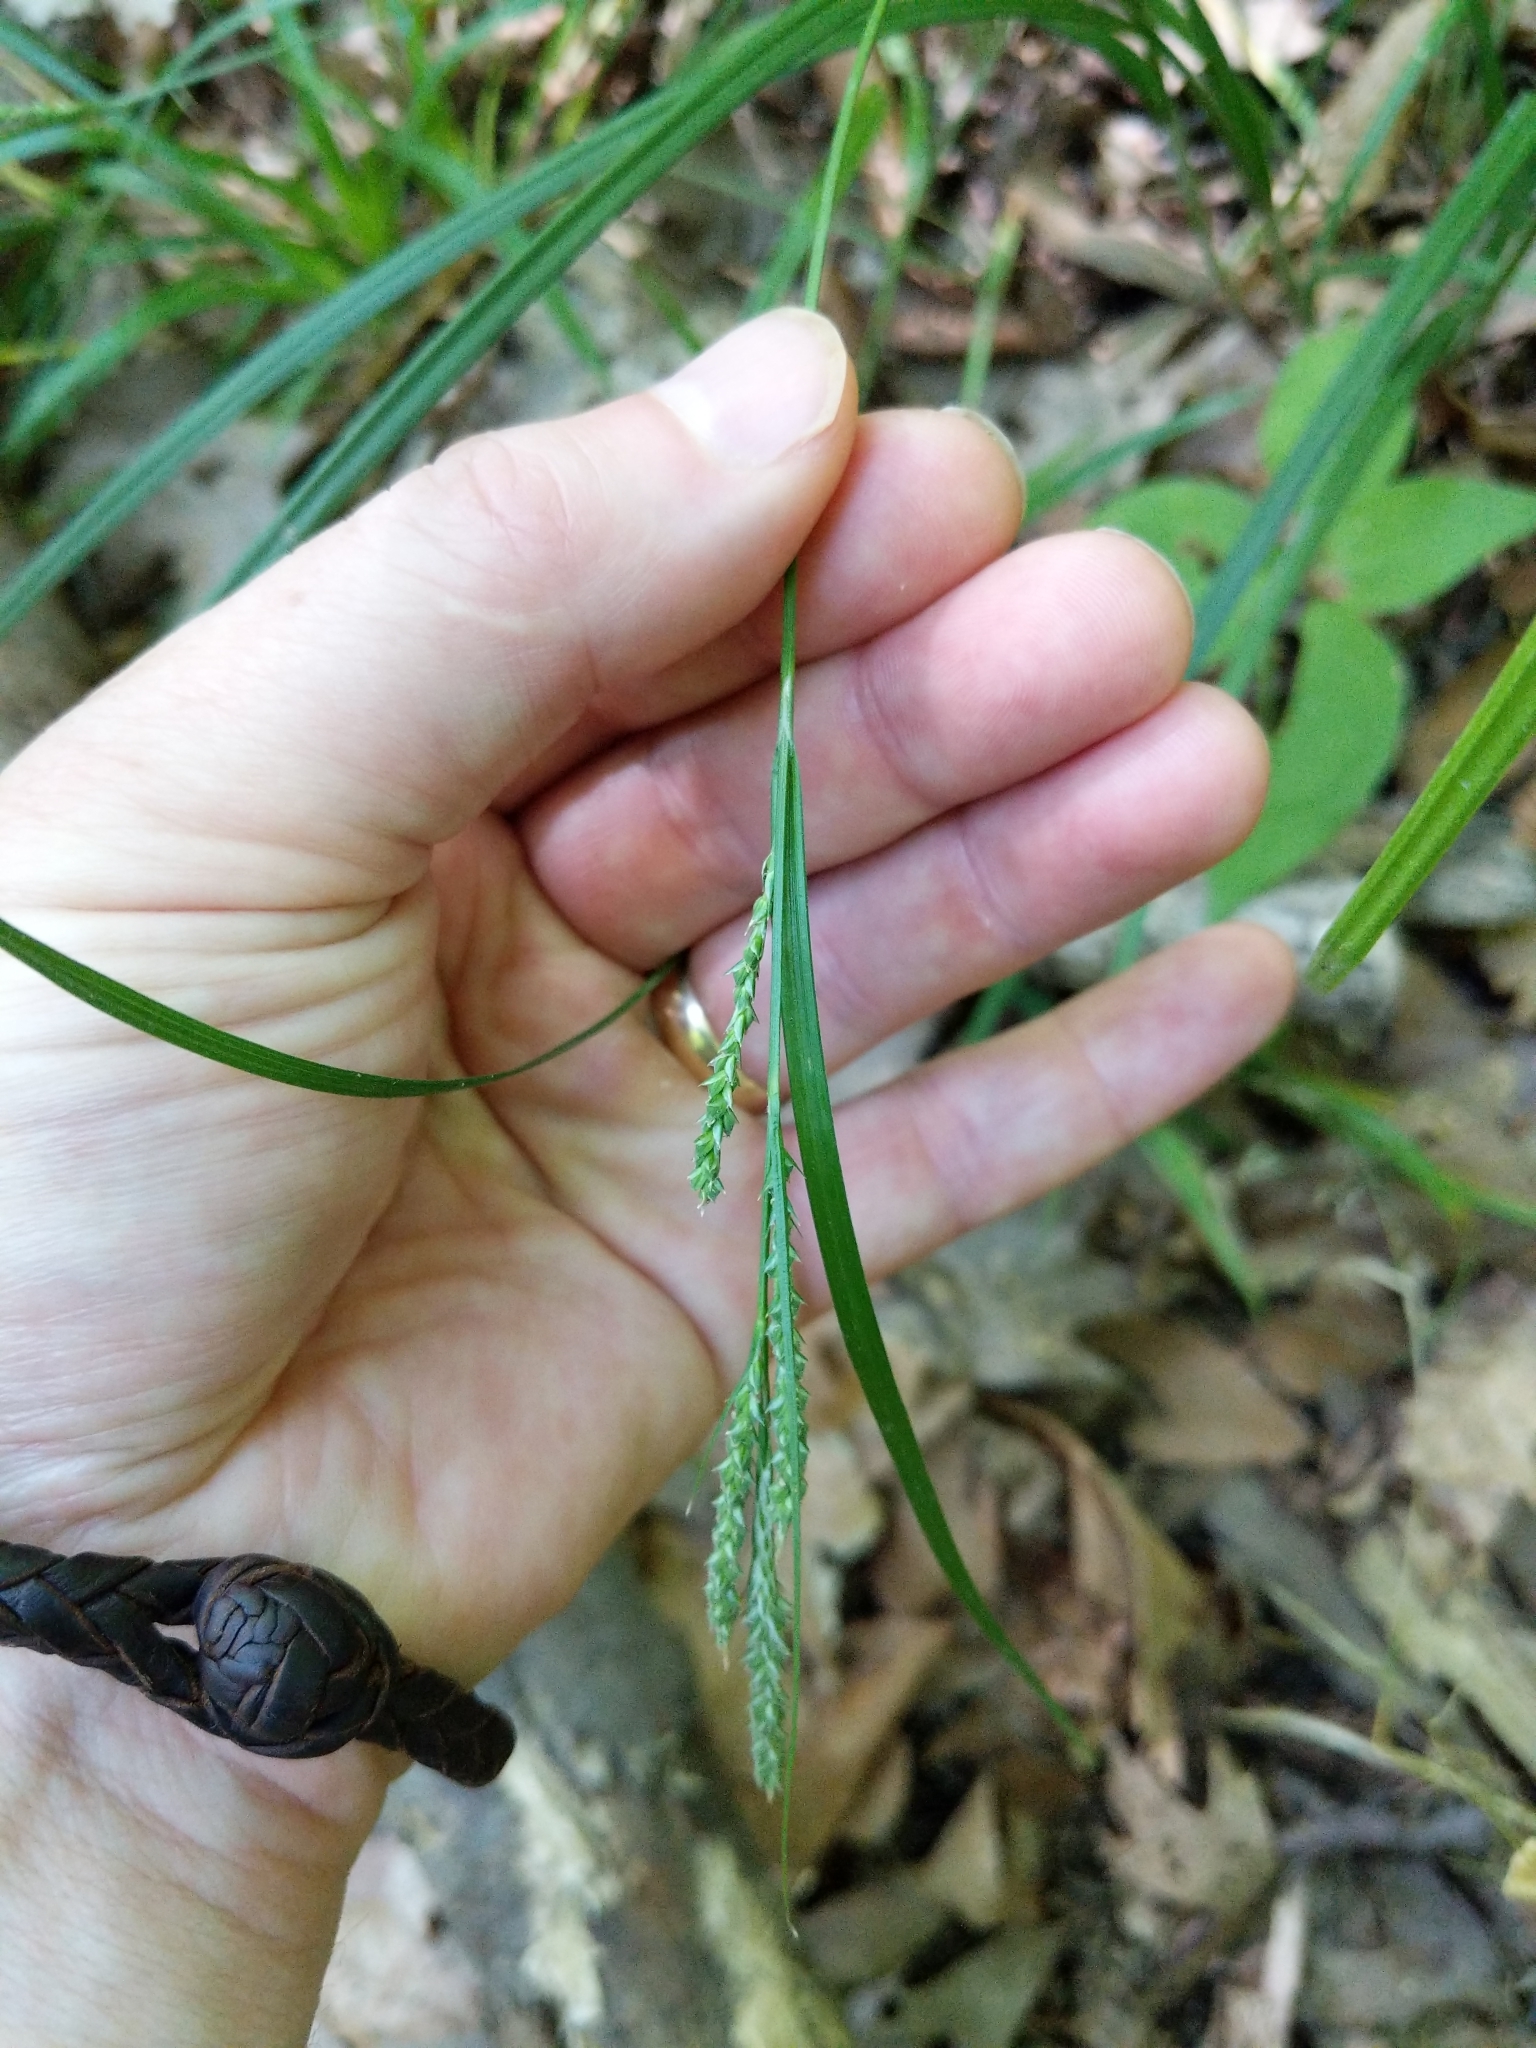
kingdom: Plantae
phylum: Tracheophyta
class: Liliopsida
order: Poales
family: Cyperaceae
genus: Carex
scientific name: Carex virescens
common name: Ribbed sedge
